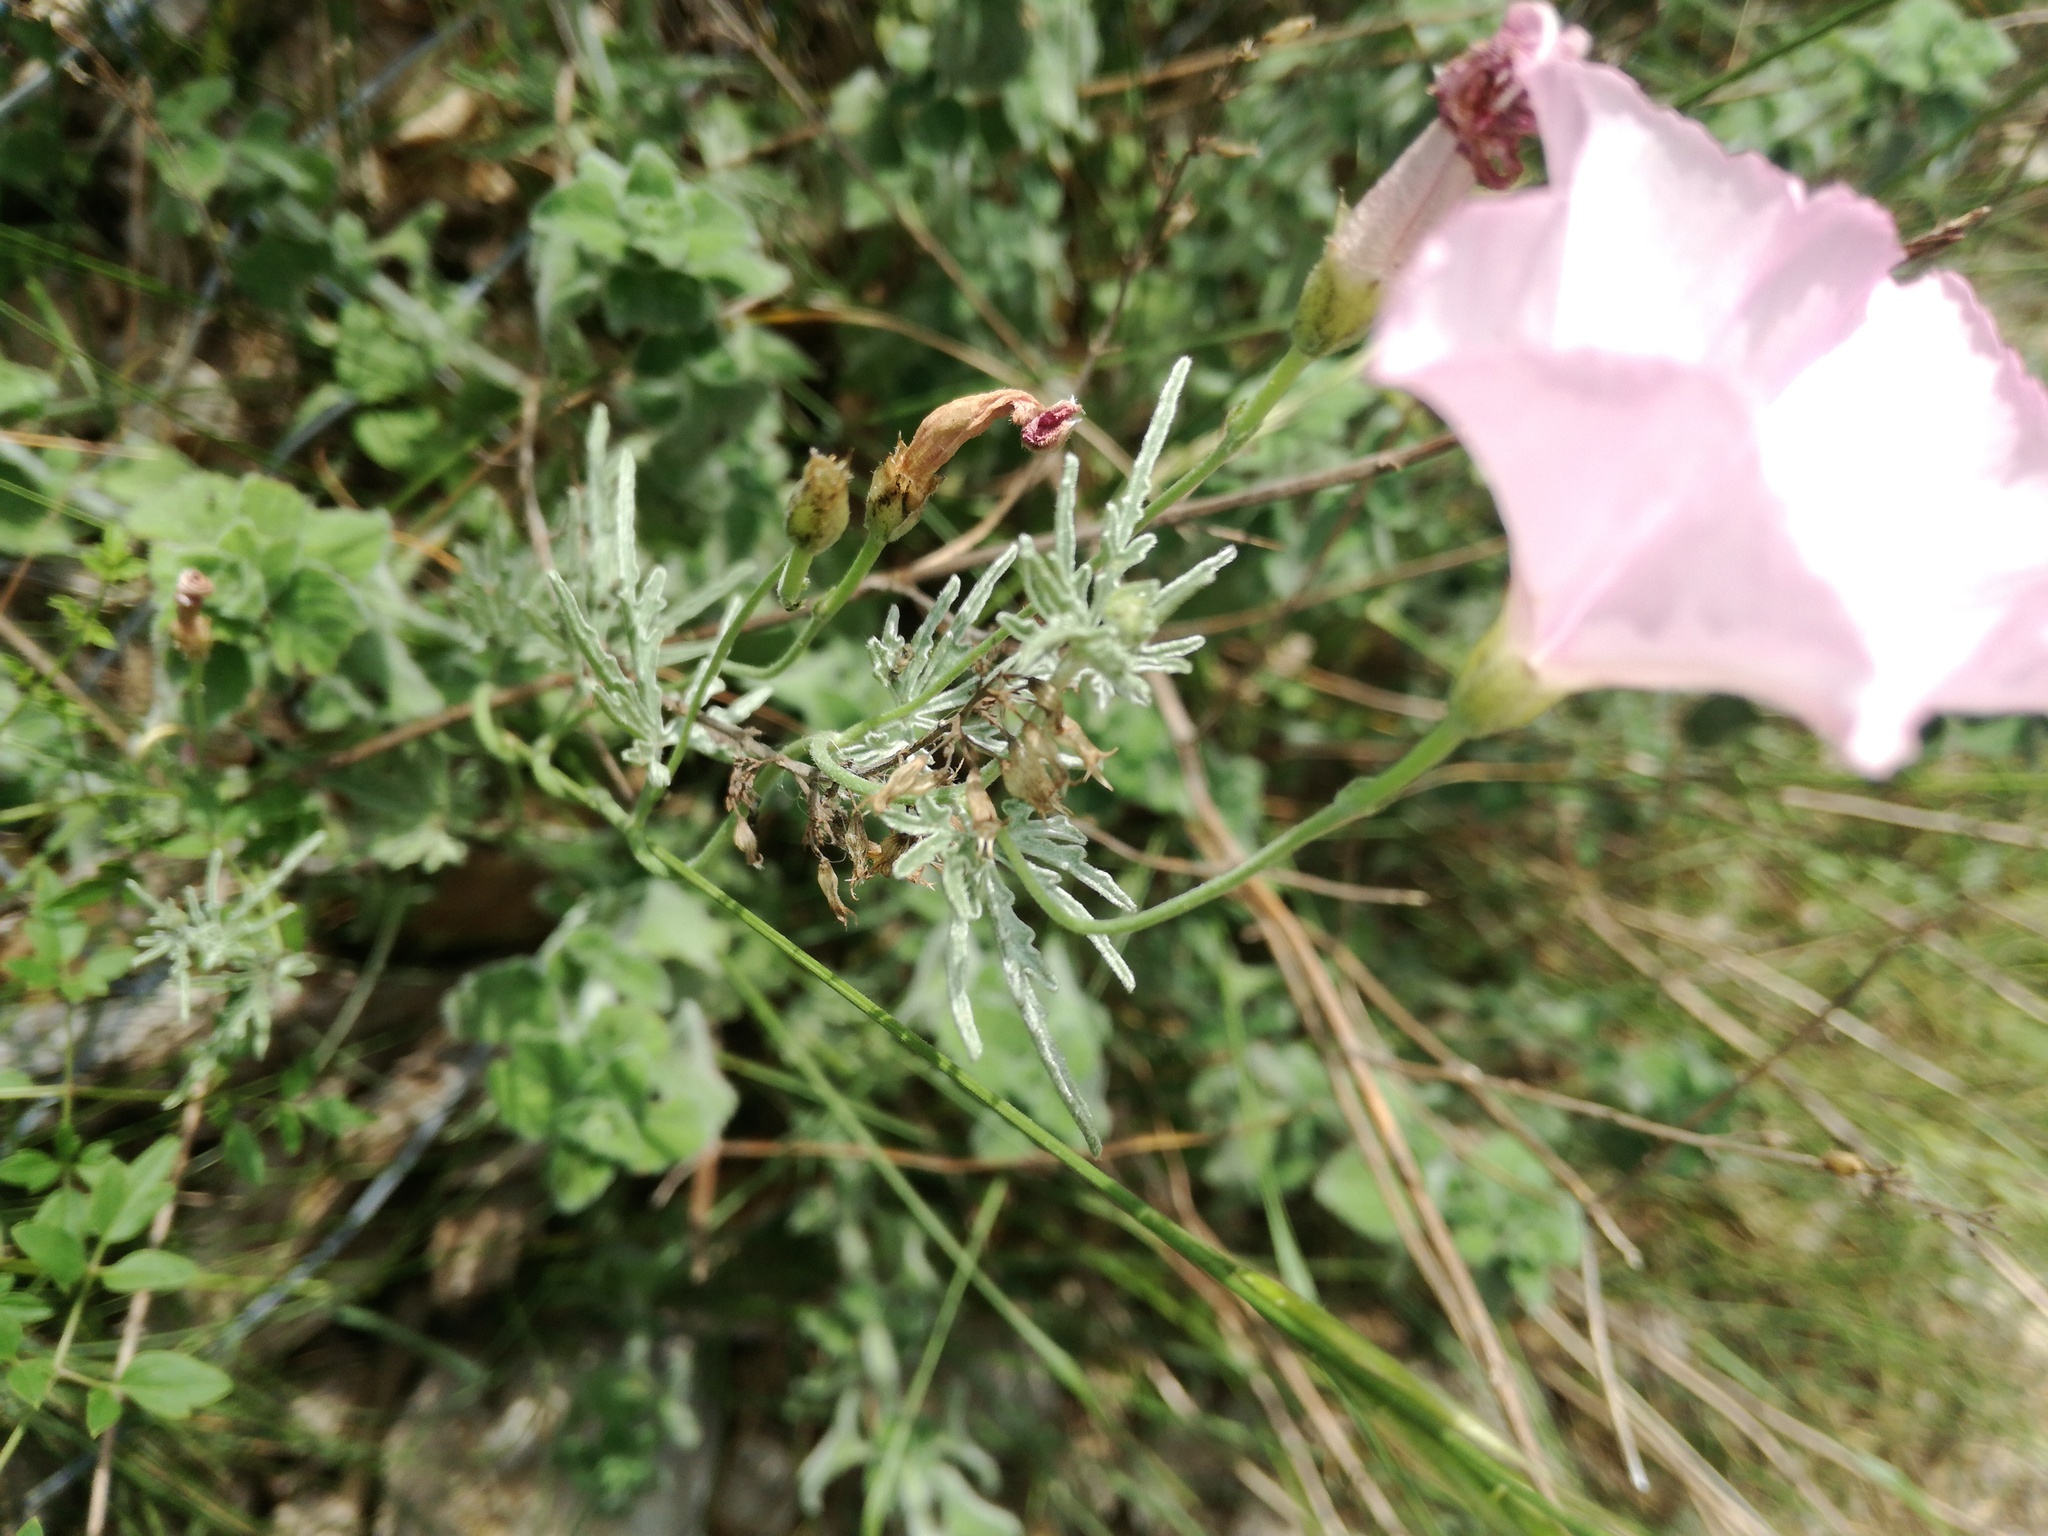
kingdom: Plantae
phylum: Tracheophyta
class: Magnoliopsida
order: Solanales
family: Convolvulaceae
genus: Convolvulus
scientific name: Convolvulus elegantissimus
